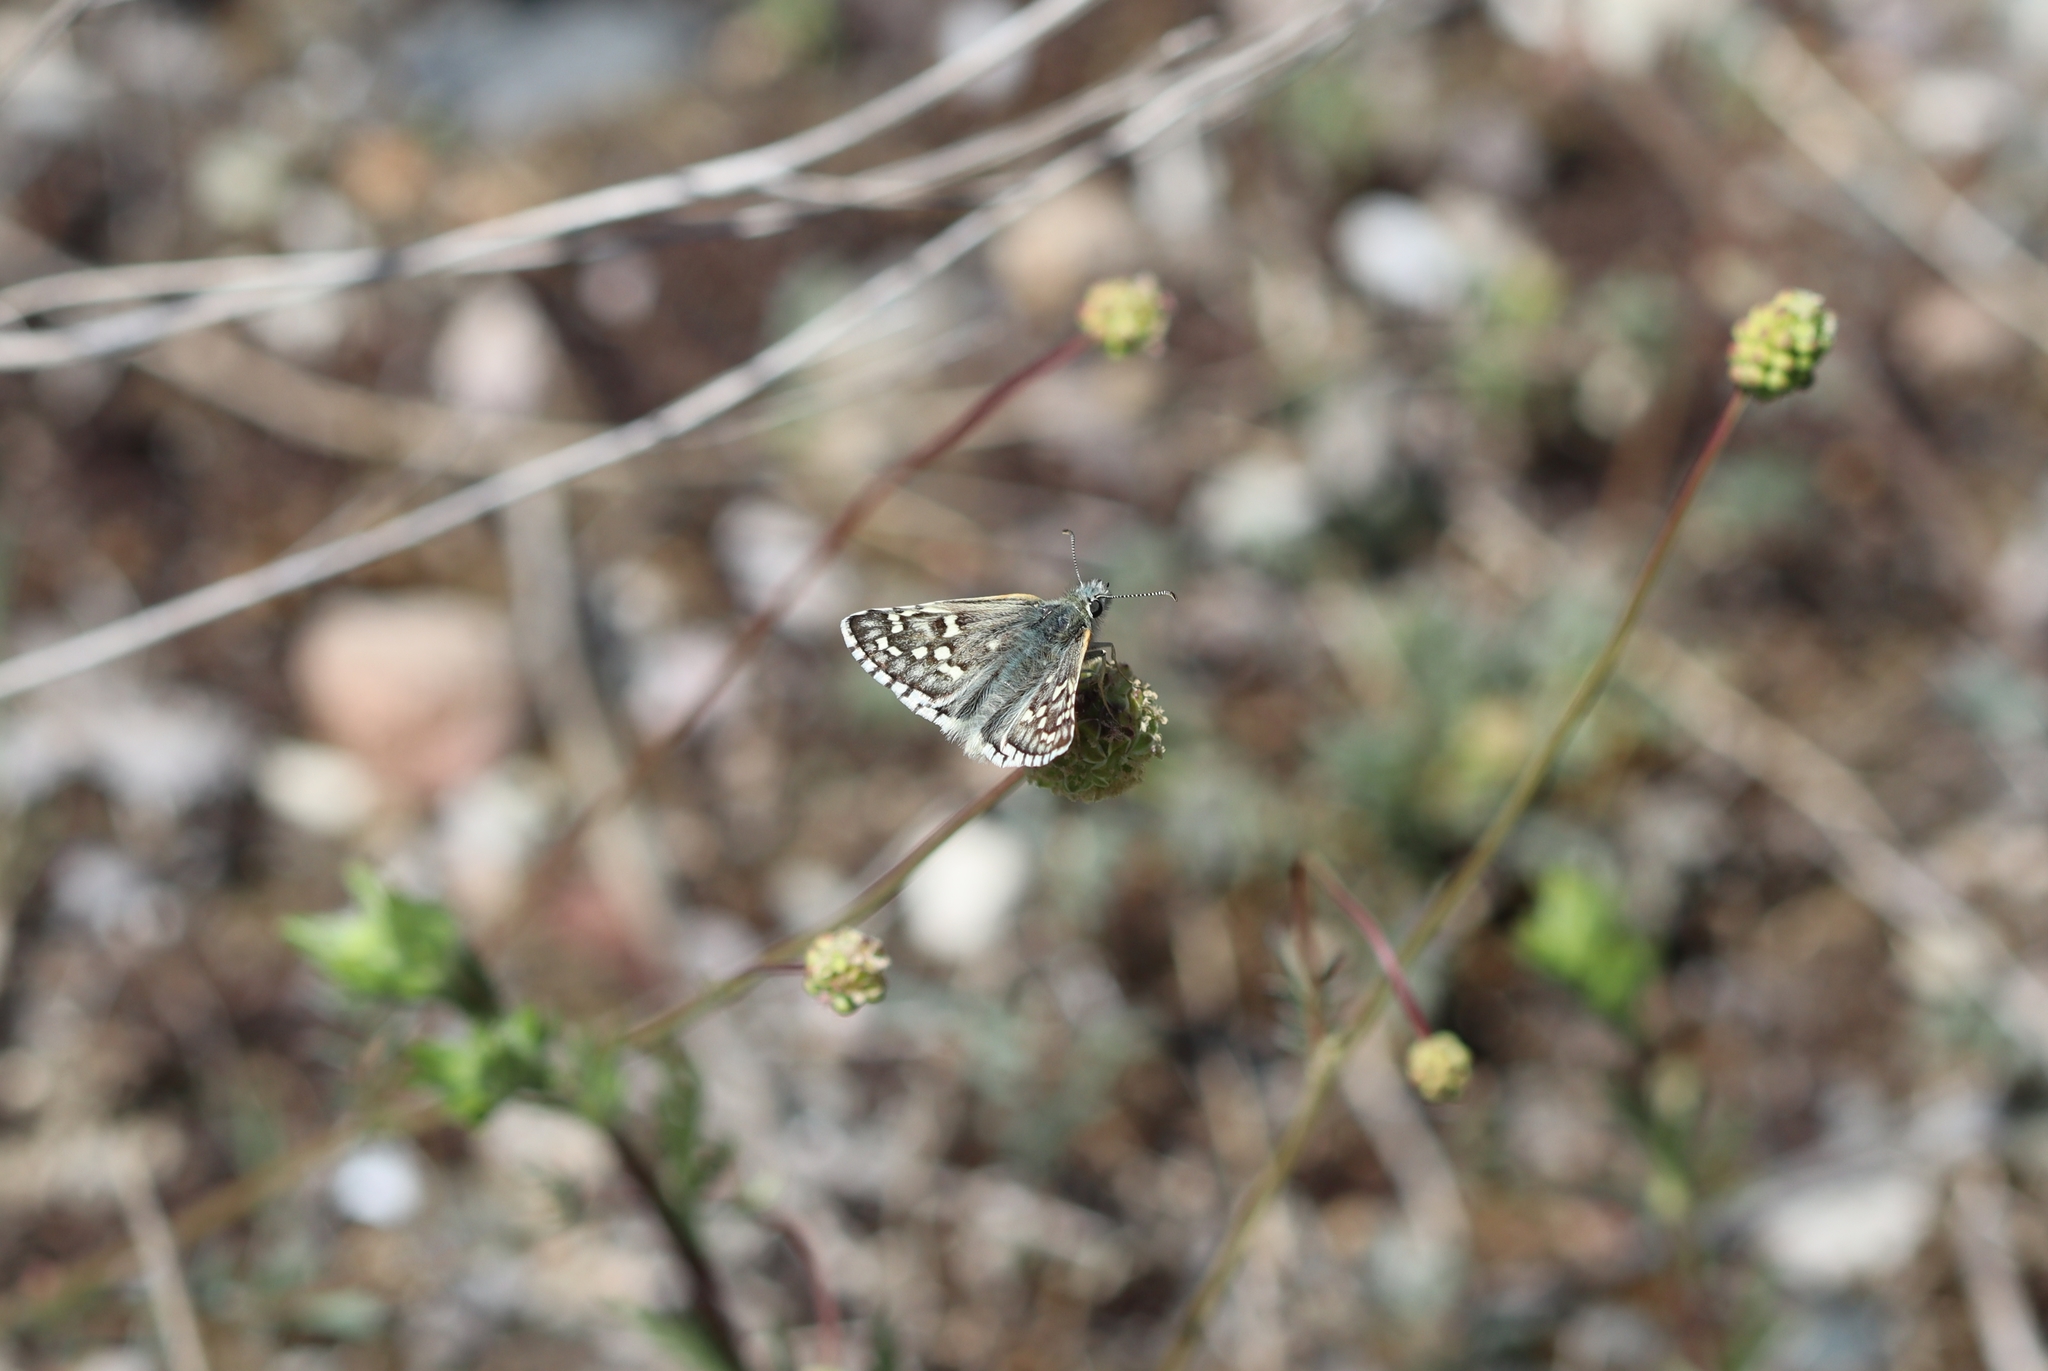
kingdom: Animalia
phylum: Arthropoda
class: Insecta
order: Lepidoptera
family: Hesperiidae
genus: Pyrgus
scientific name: Pyrgus sidae
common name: Yellow-banded skipper
